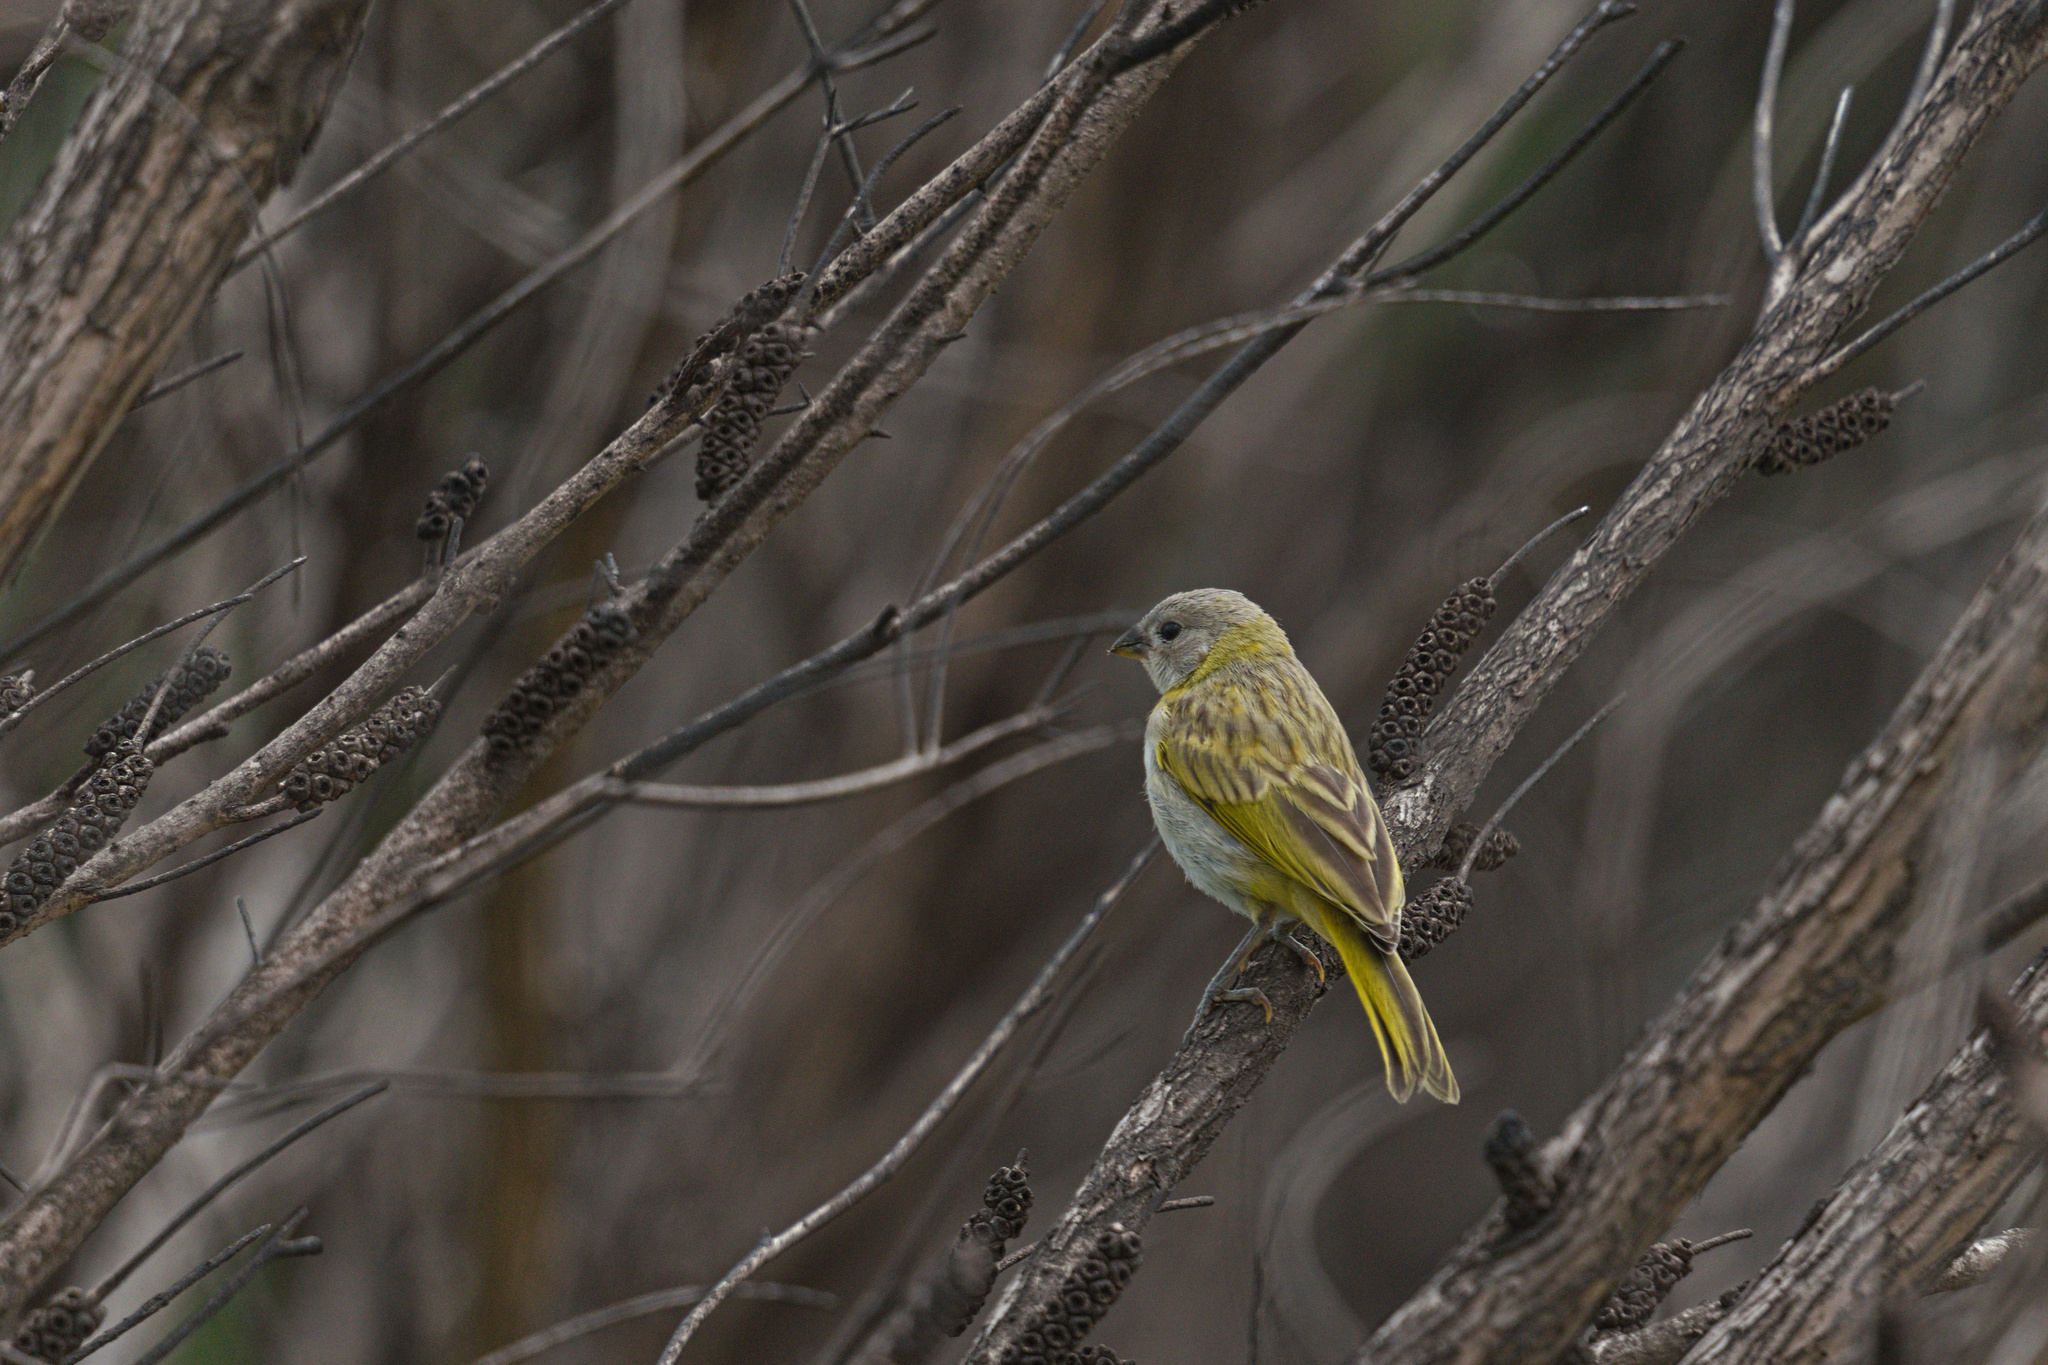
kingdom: Animalia
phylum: Chordata
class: Aves
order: Passeriformes
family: Thraupidae
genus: Sicalis
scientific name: Sicalis flaveola
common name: Saffron finch
